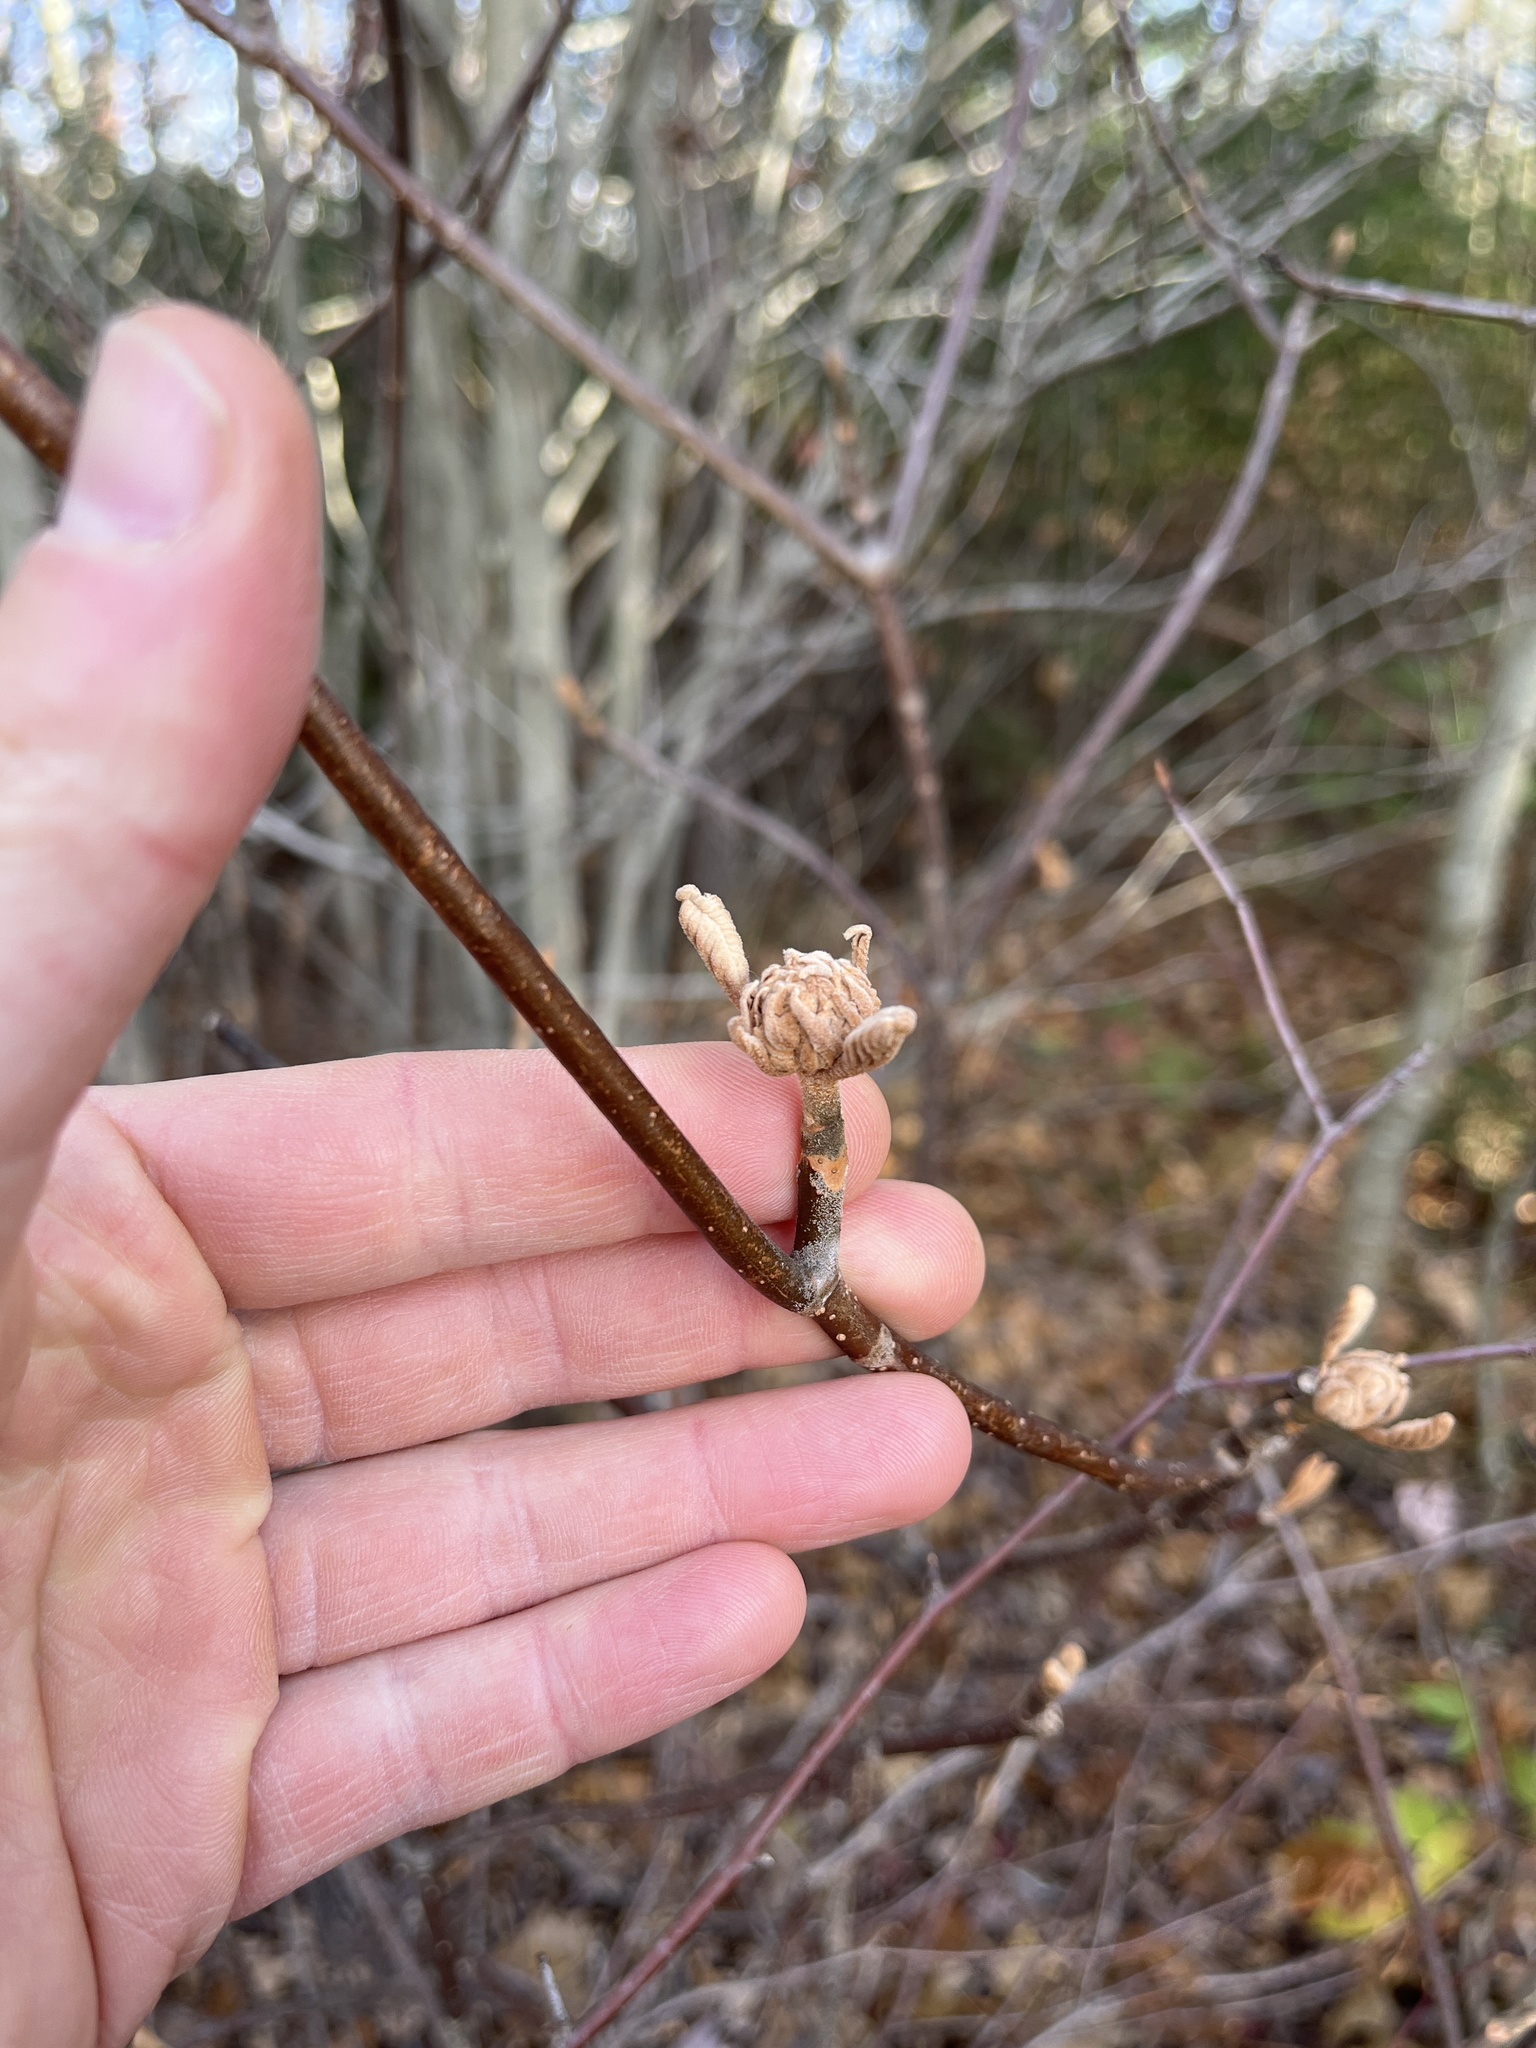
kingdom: Plantae
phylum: Tracheophyta
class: Magnoliopsida
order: Dipsacales
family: Viburnaceae
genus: Viburnum
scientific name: Viburnum lantanoides
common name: Hobblebush
